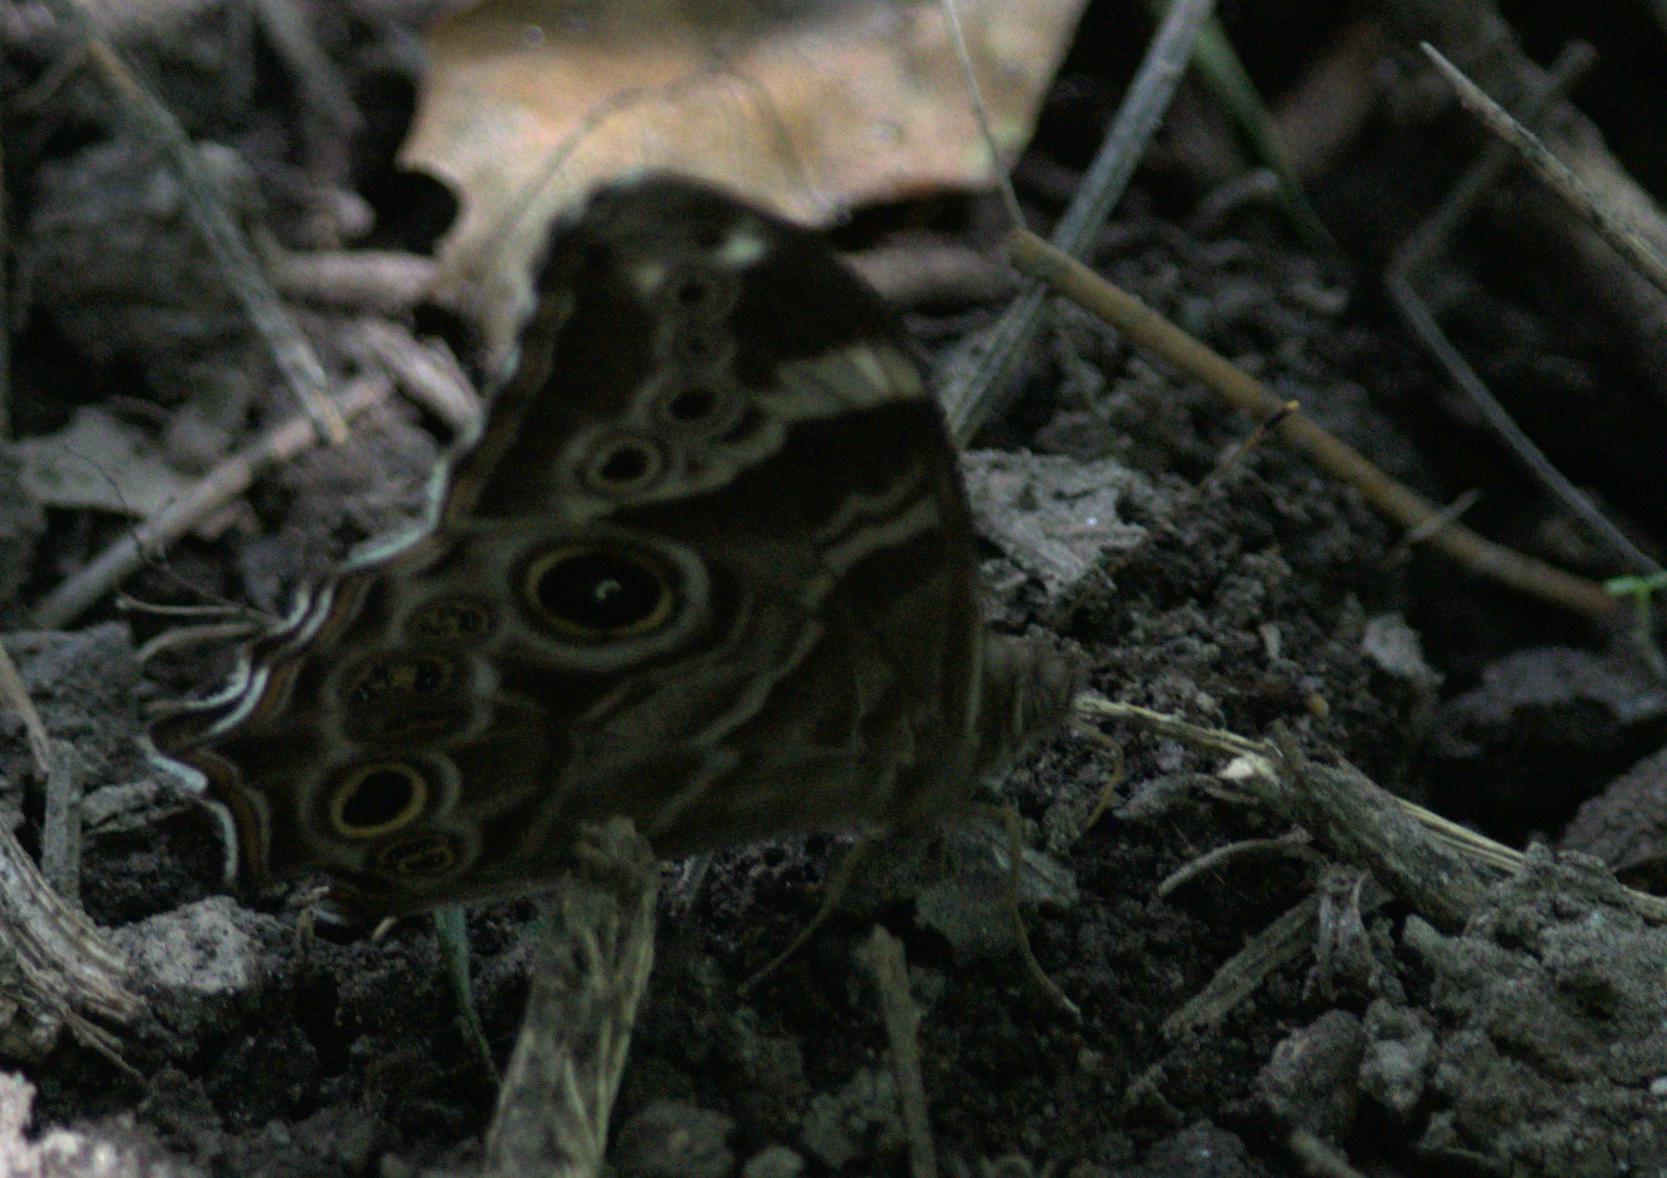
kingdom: Animalia
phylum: Arthropoda
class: Insecta
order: Lepidoptera
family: Nymphalidae
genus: Lethe
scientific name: Lethe rohria
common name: Common treebrown
